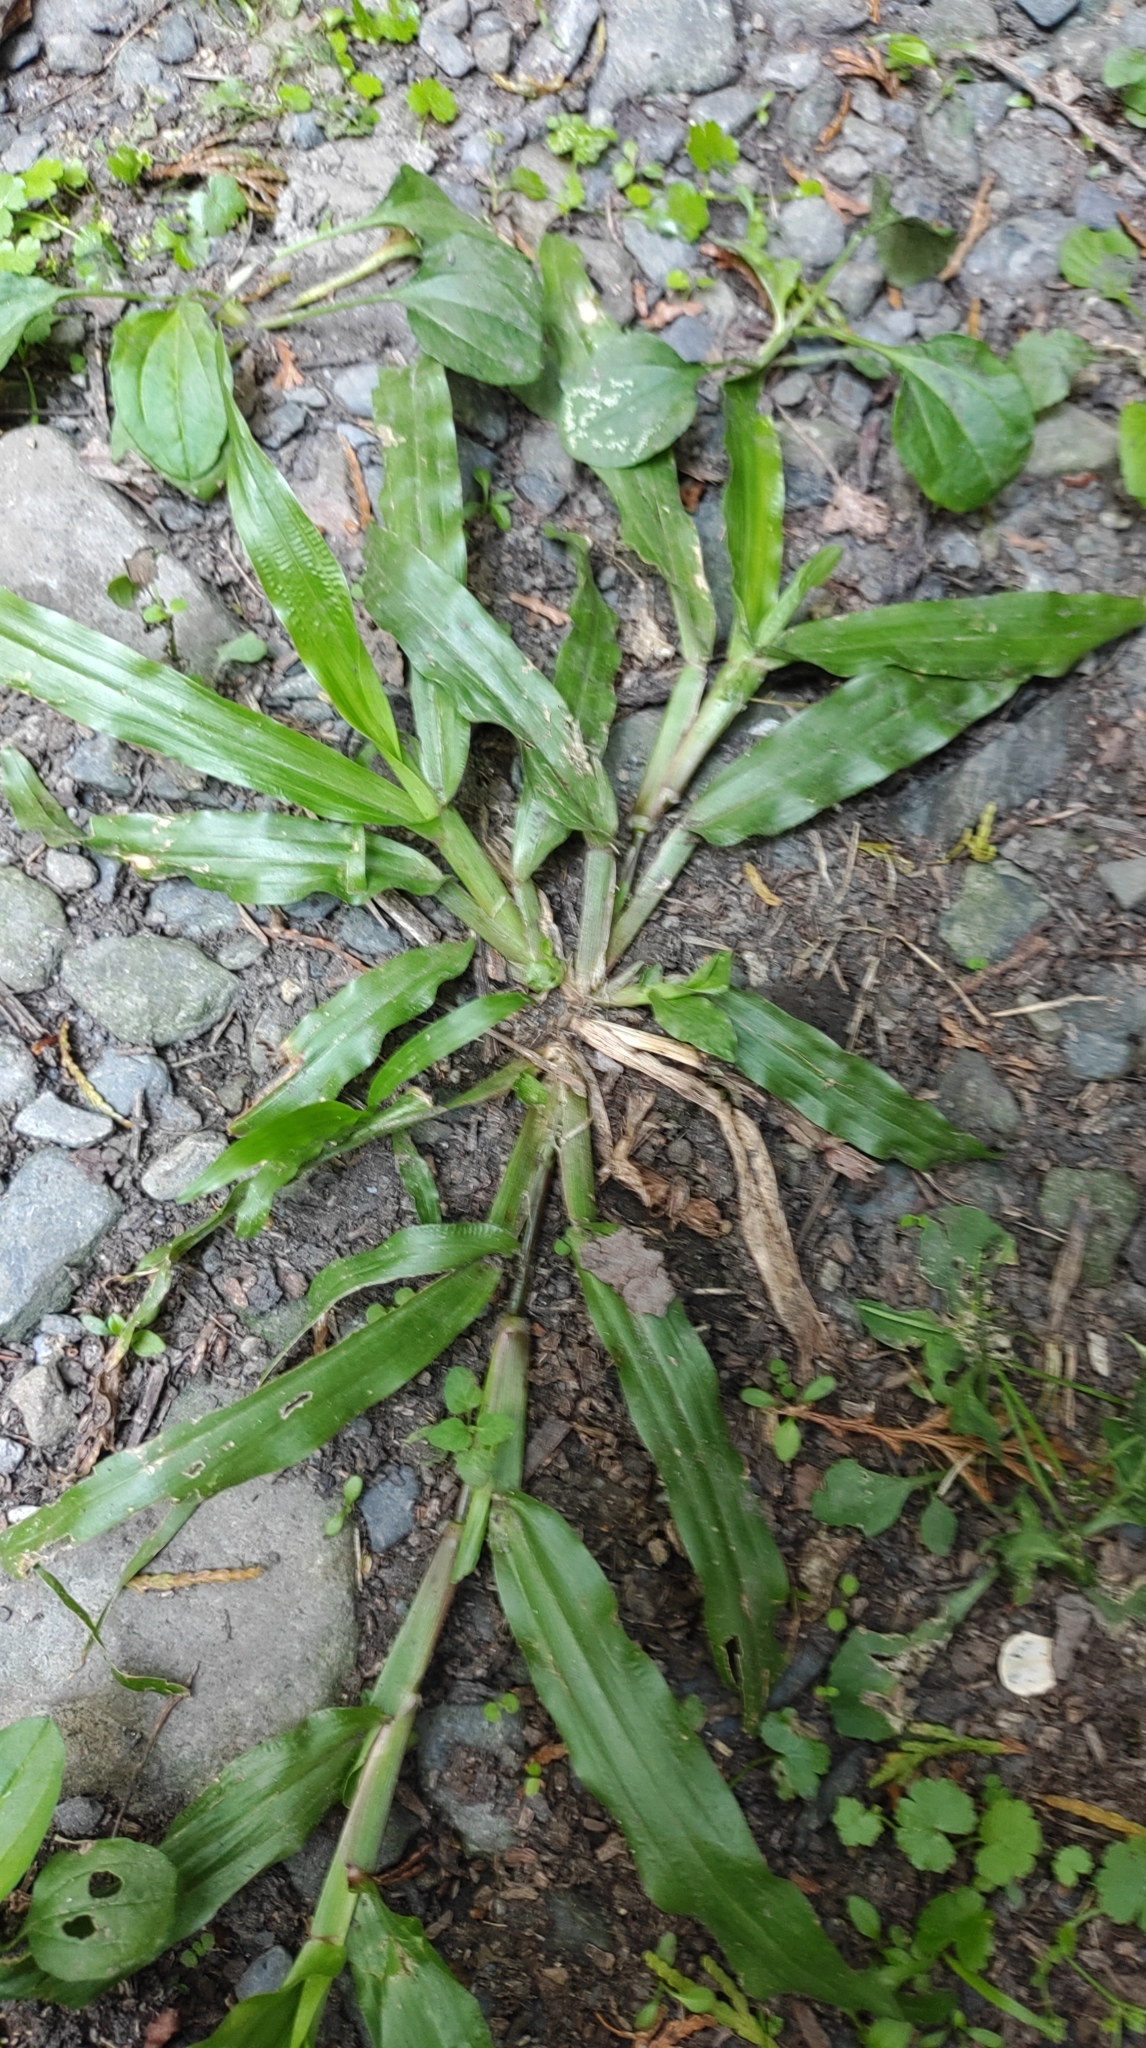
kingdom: Plantae
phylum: Tracheophyta
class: Liliopsida
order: Poales
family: Poaceae
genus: Axonopus
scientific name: Axonopus compressus
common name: American carpet grass
